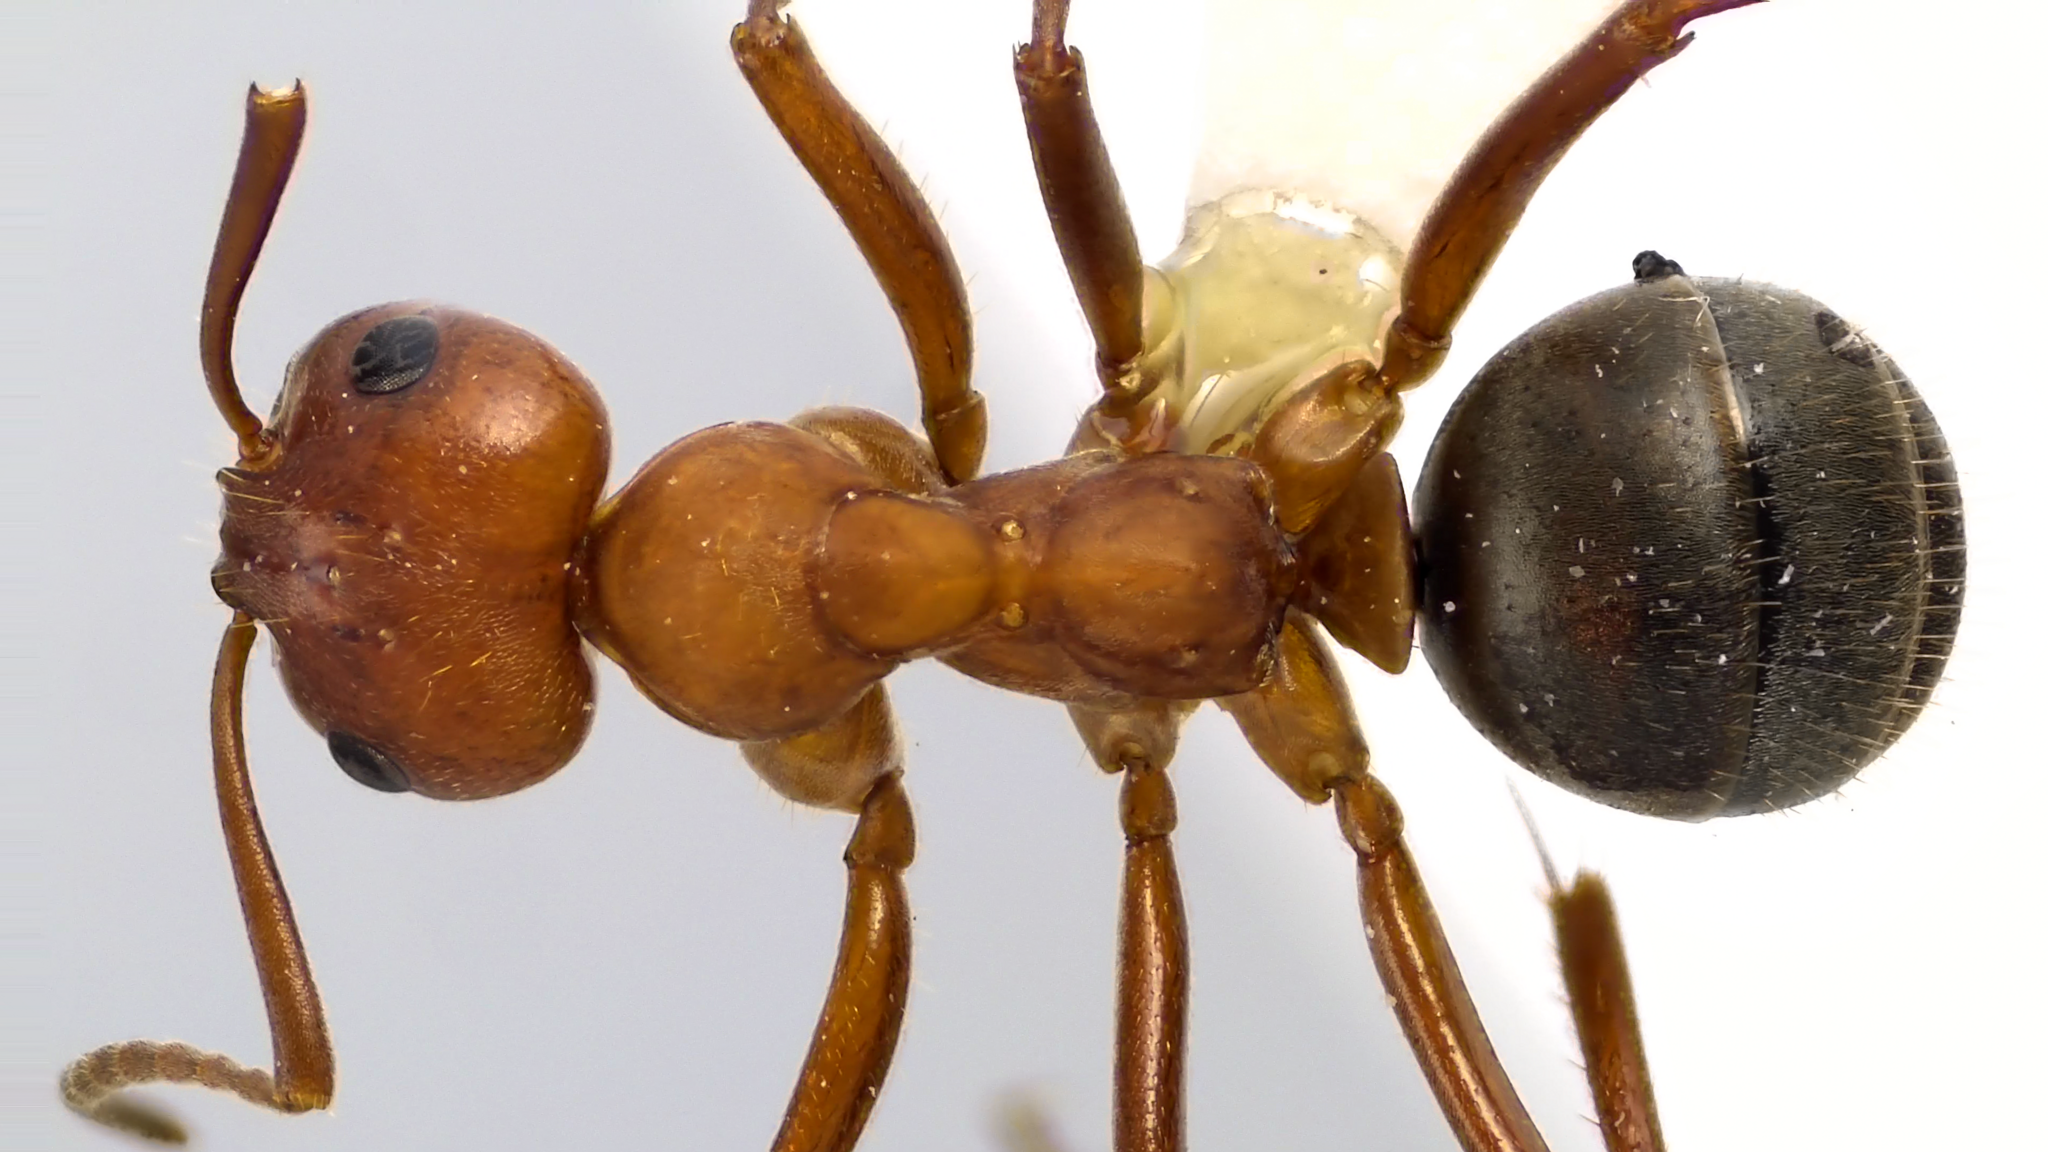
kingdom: Animalia
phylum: Arthropoda
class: Insecta
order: Hymenoptera
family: Formicidae
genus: Formica
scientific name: Formica pergandei
